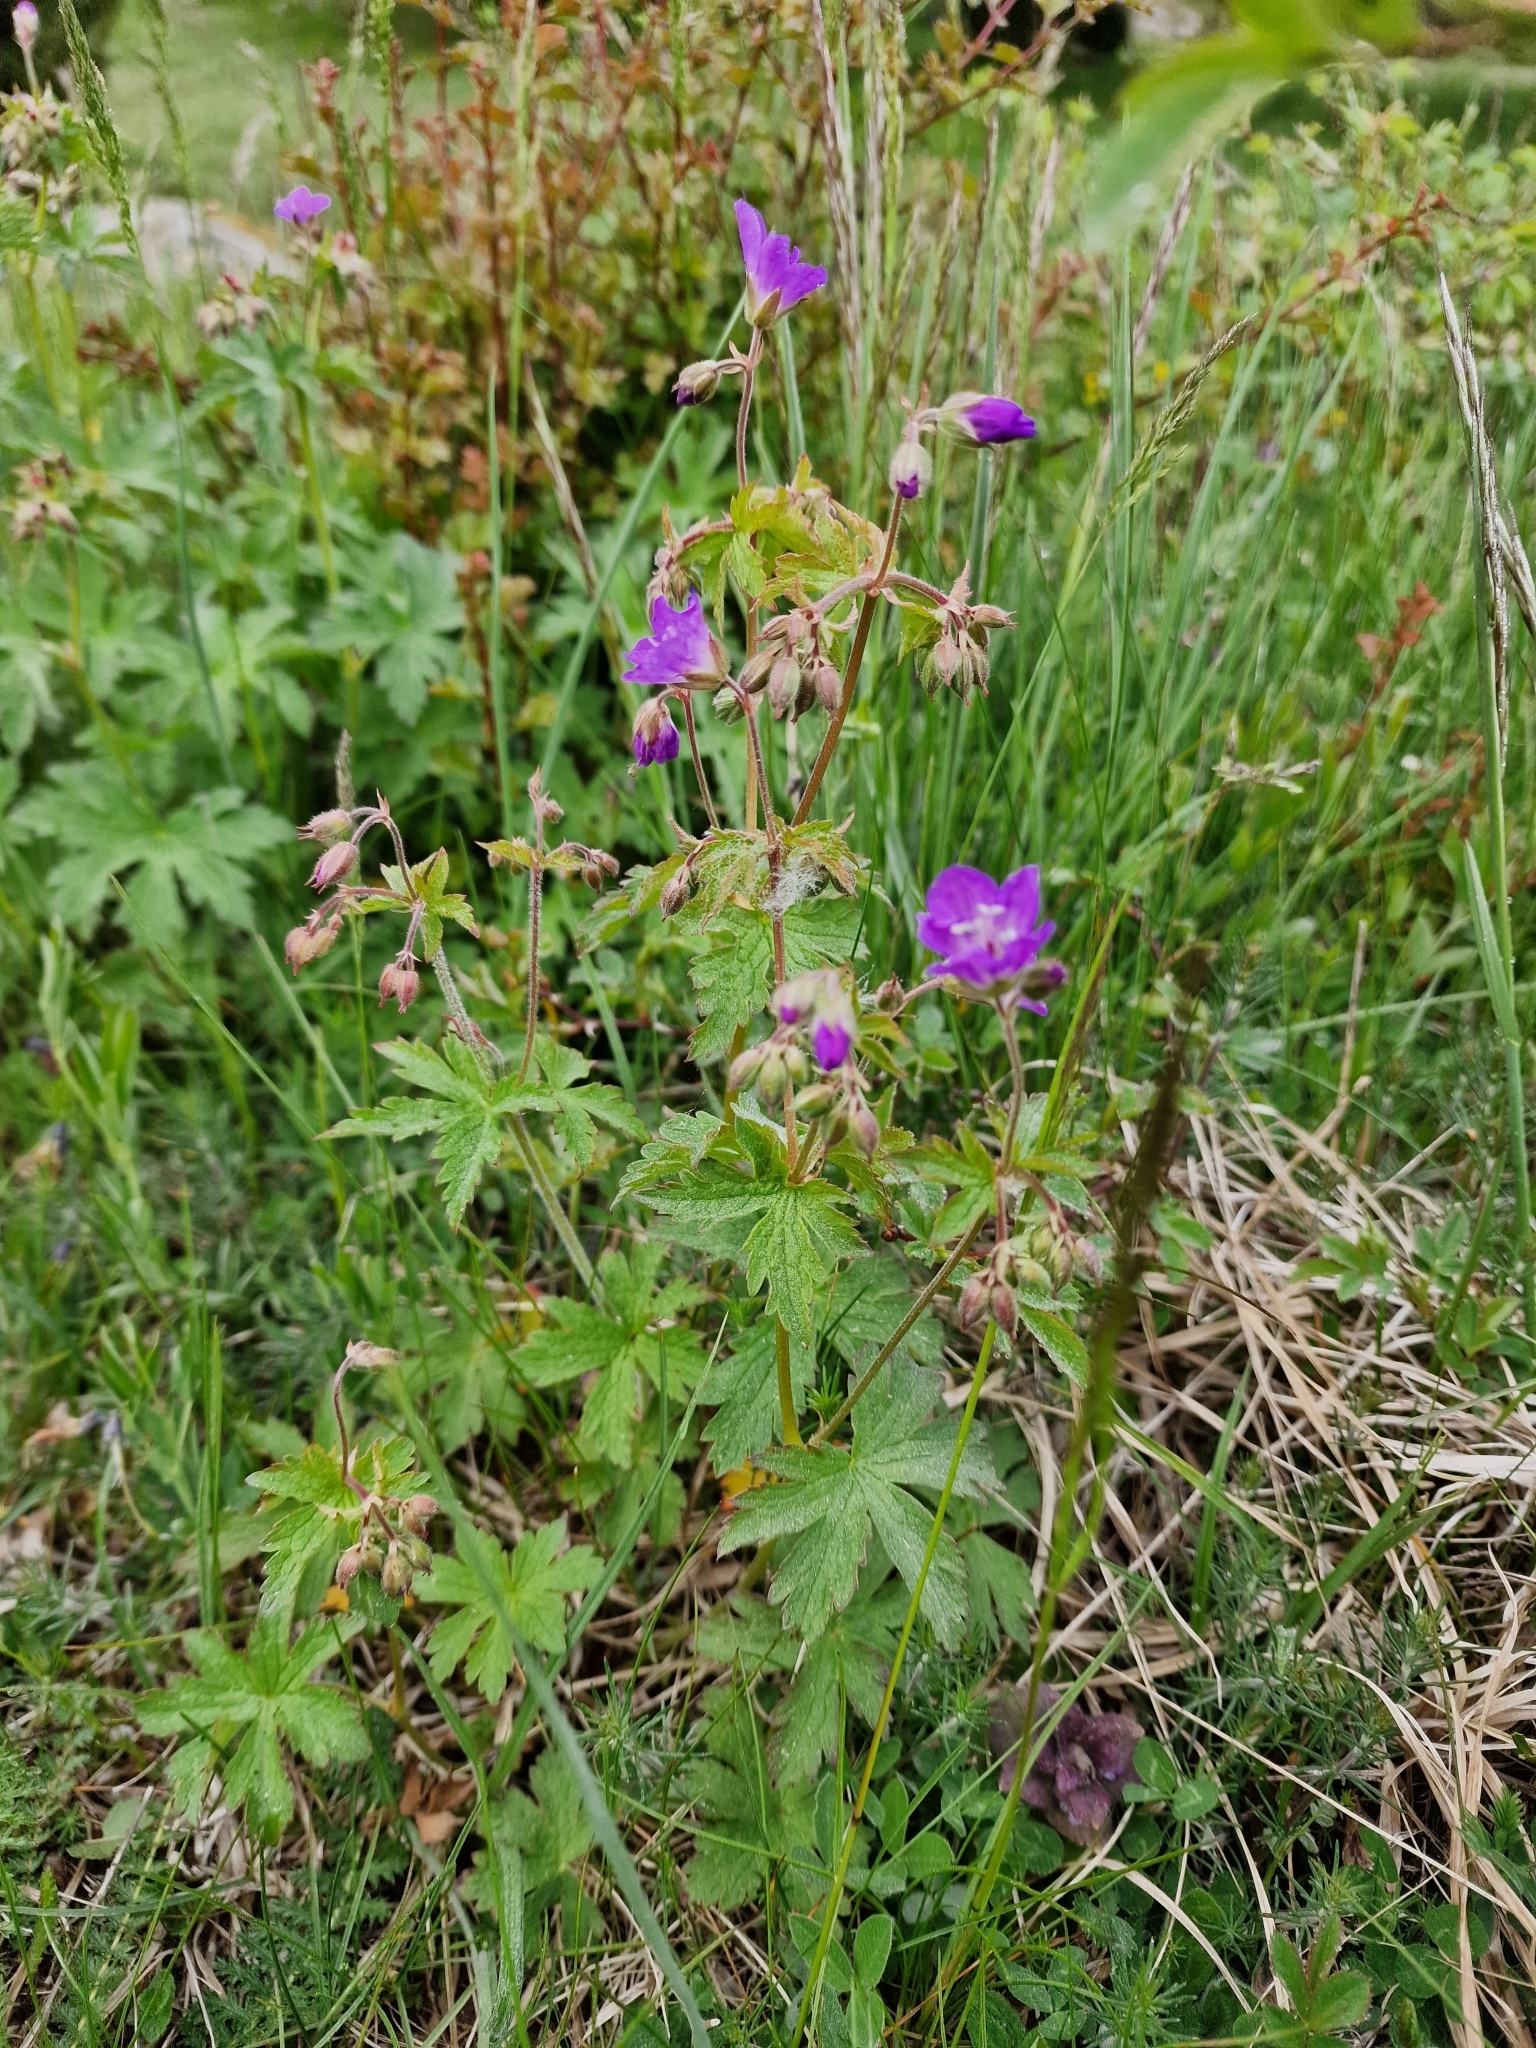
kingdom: Plantae
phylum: Tracheophyta
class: Magnoliopsida
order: Geraniales
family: Geraniaceae
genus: Geranium
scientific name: Geranium sylvaticum
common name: Wood crane's-bill
